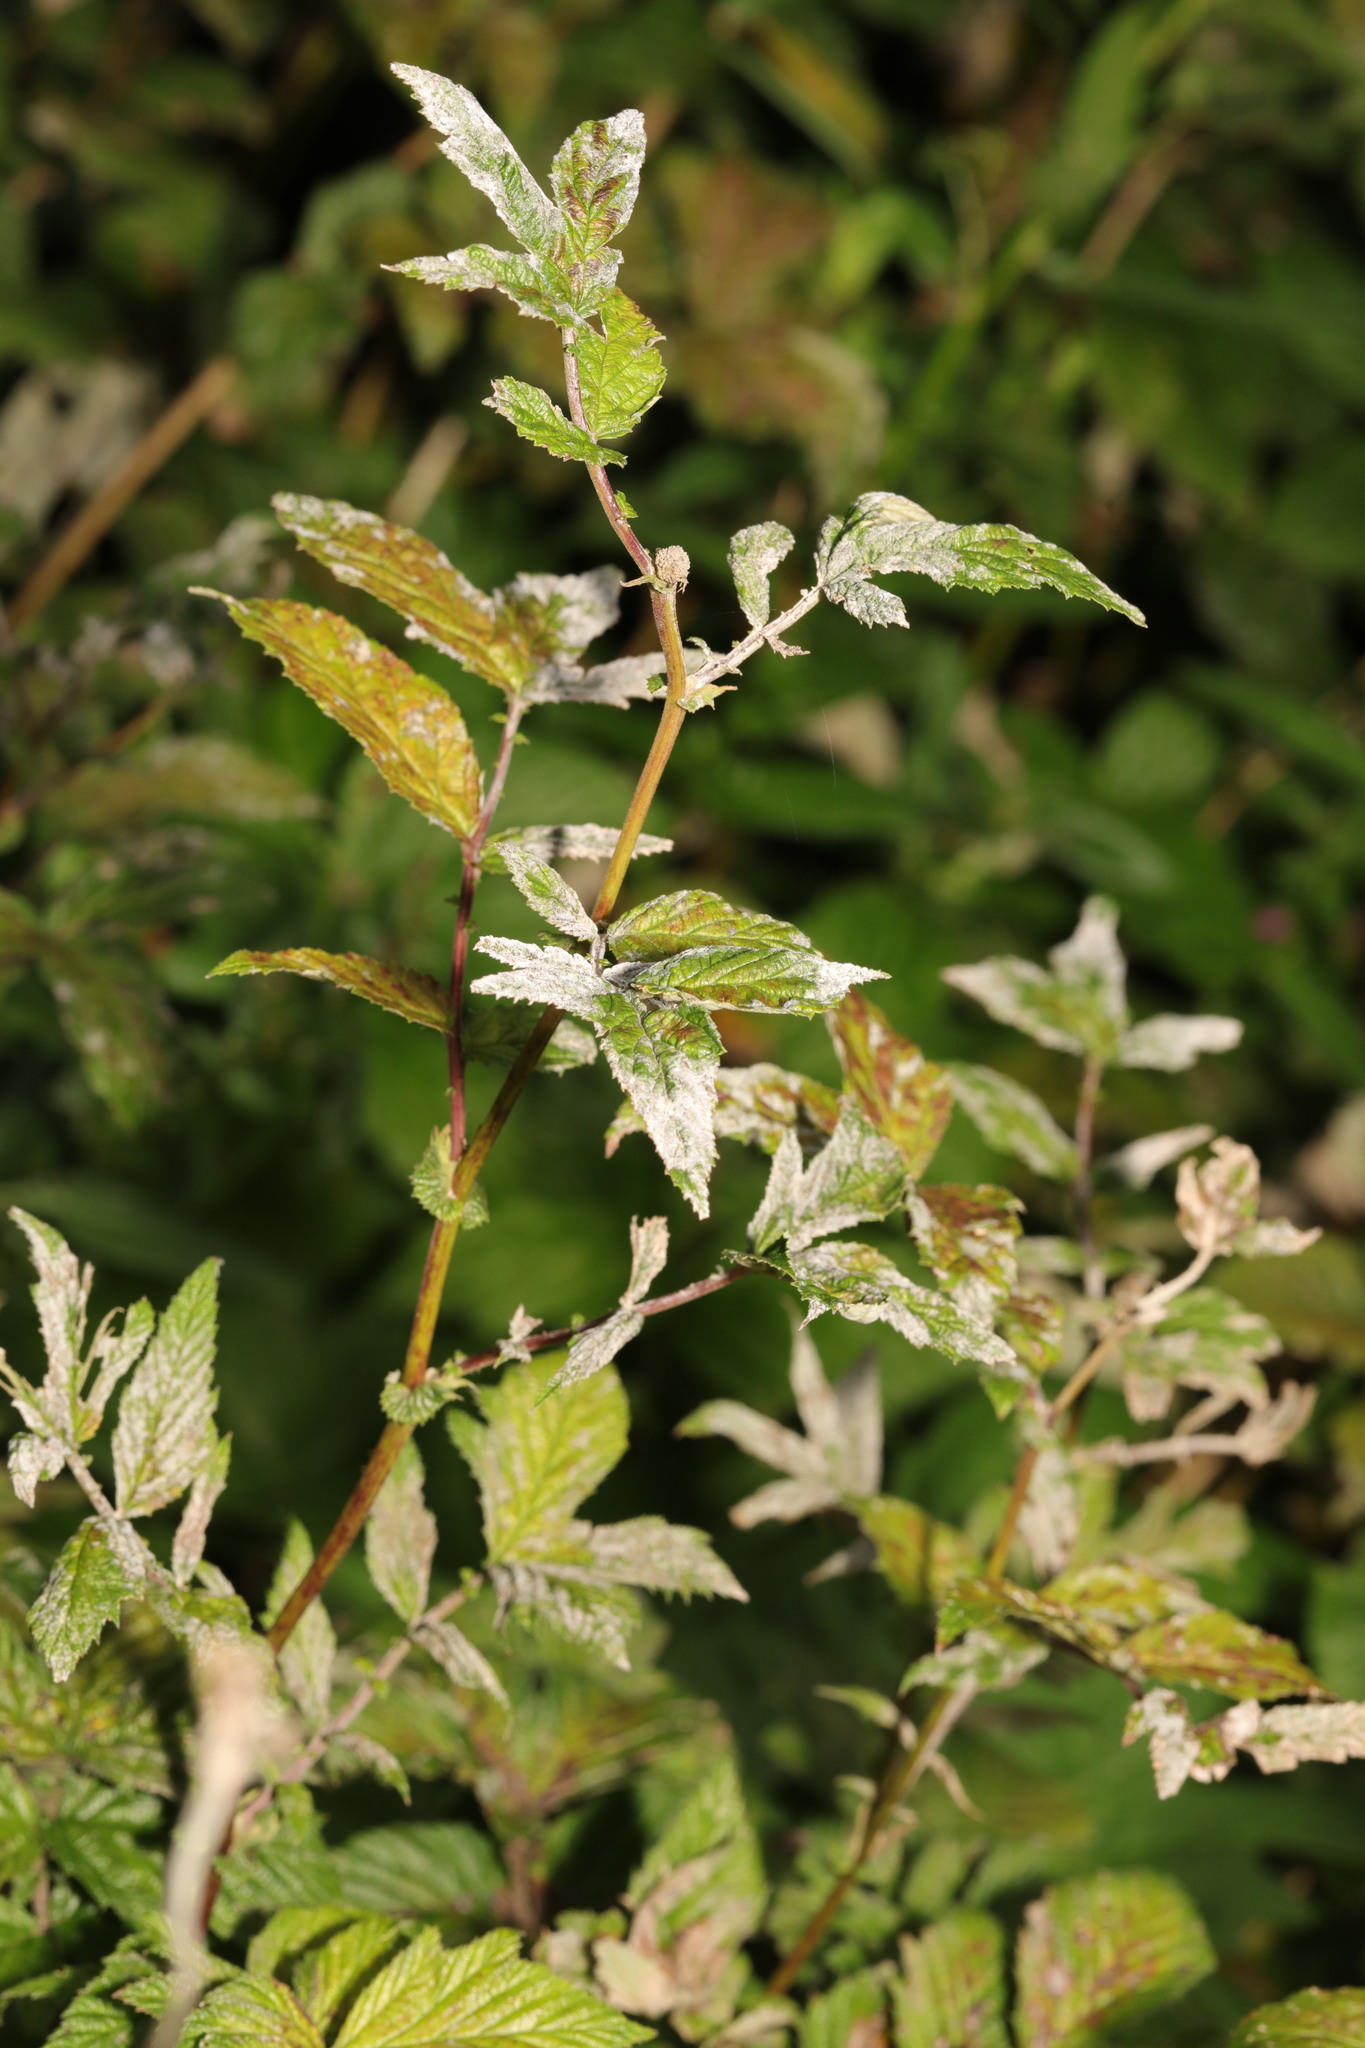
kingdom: Fungi
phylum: Ascomycota
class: Leotiomycetes
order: Helotiales
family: Erysiphaceae
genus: Podosphaera
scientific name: Podosphaera filipendulae
